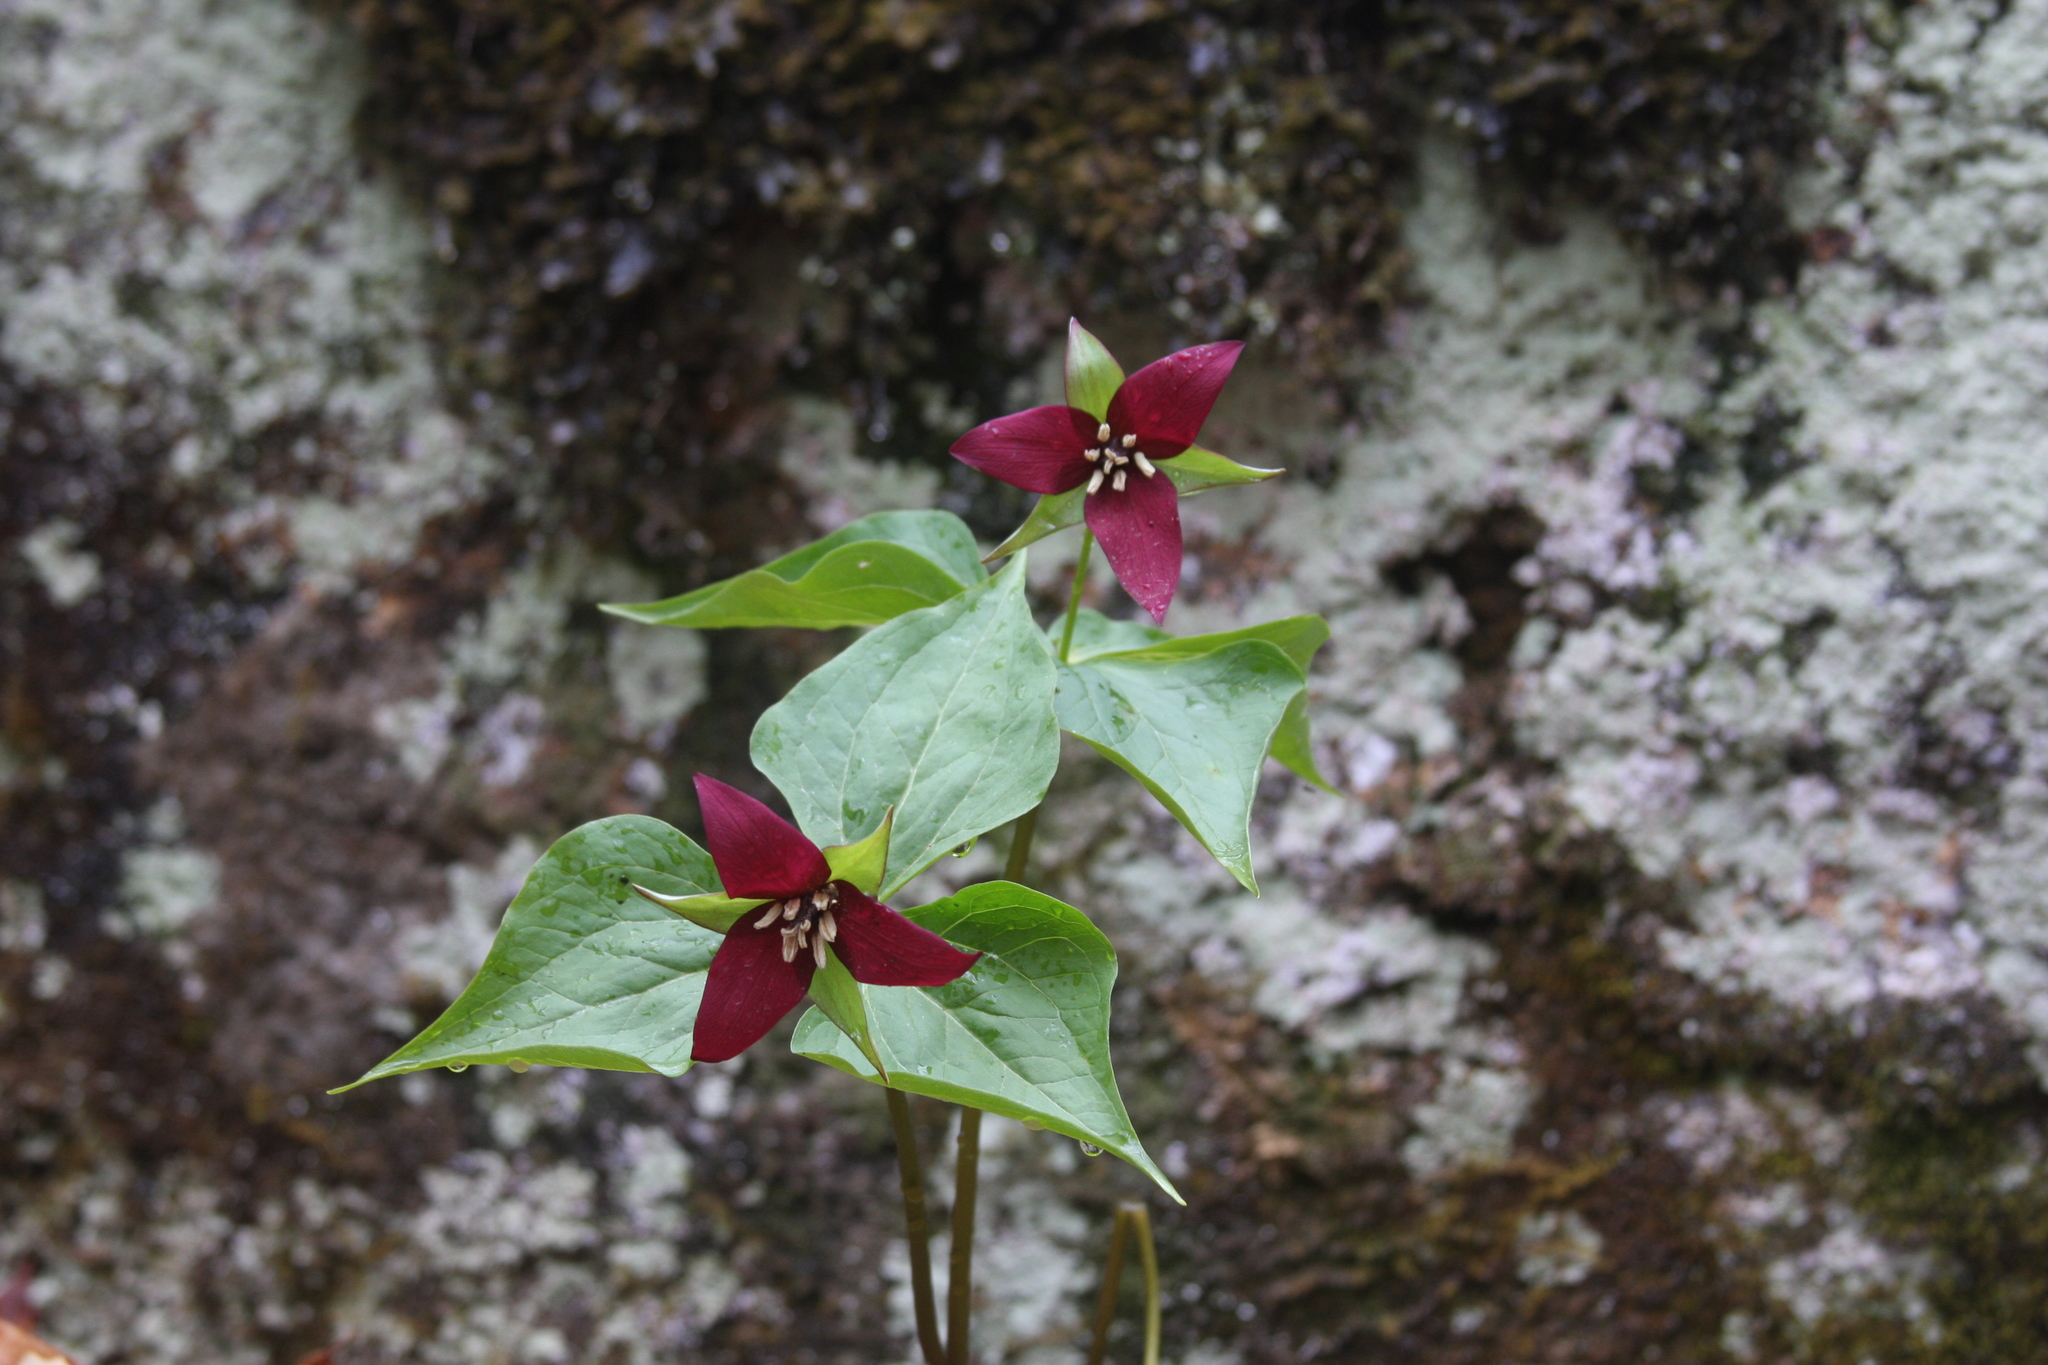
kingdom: Plantae
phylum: Tracheophyta
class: Liliopsida
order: Liliales
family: Melanthiaceae
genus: Trillium
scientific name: Trillium erectum
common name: Purple trillium
